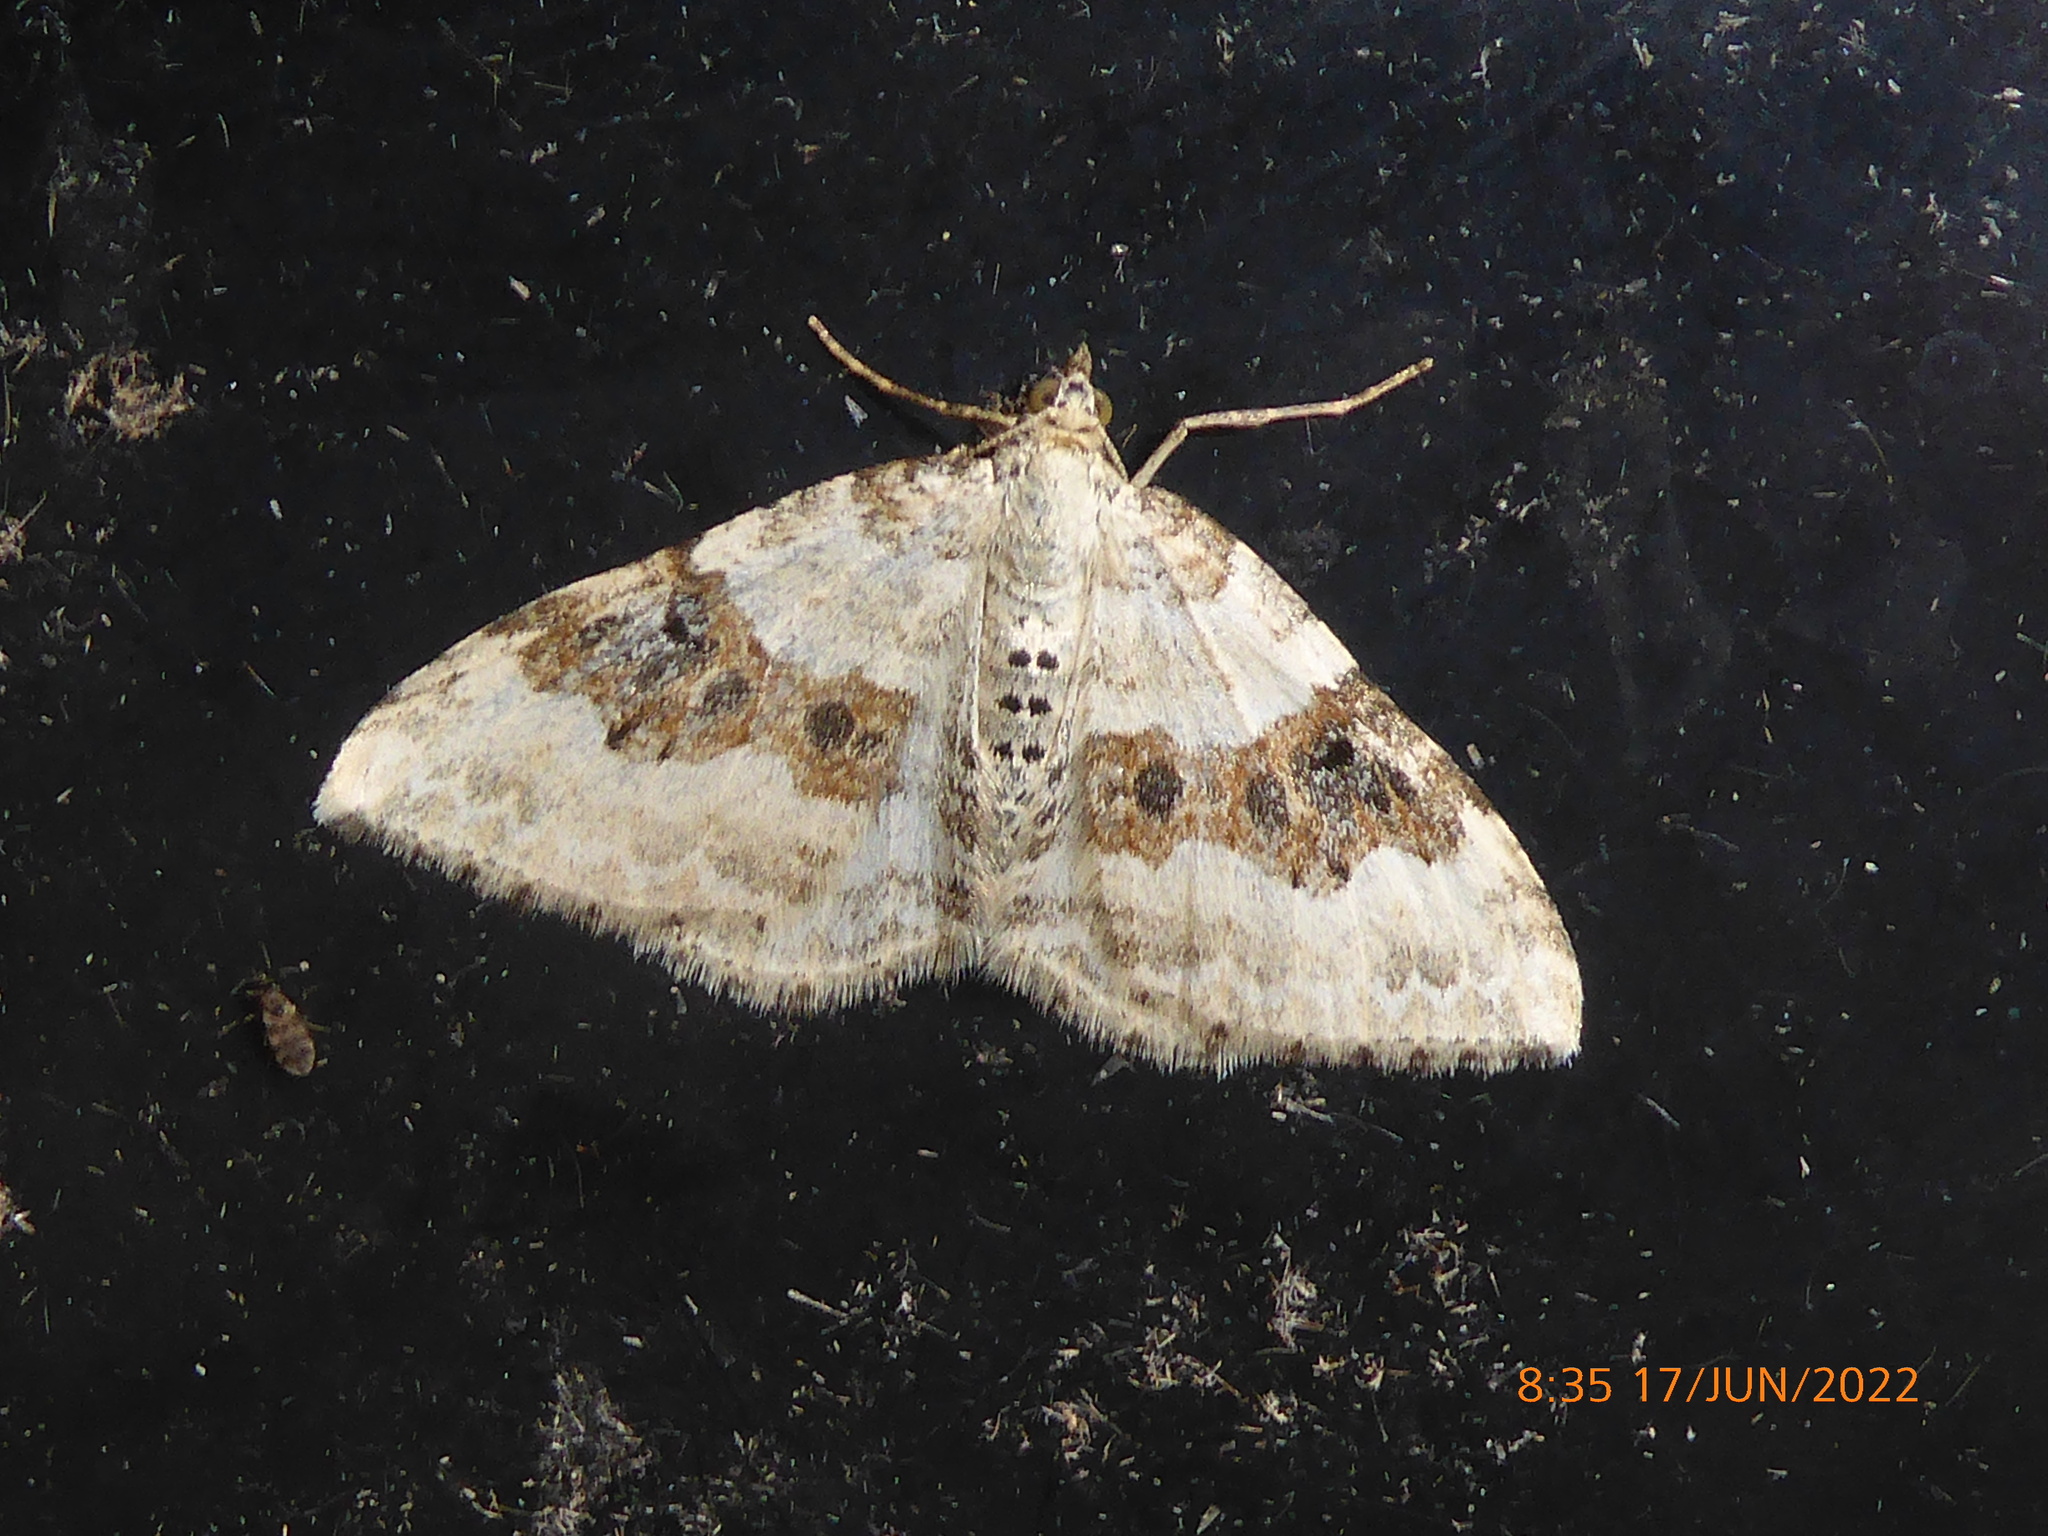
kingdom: Animalia
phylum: Arthropoda
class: Insecta
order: Lepidoptera
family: Geometridae
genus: Xanthorhoe
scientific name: Xanthorhoe montanata
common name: Silver-ground carpet
